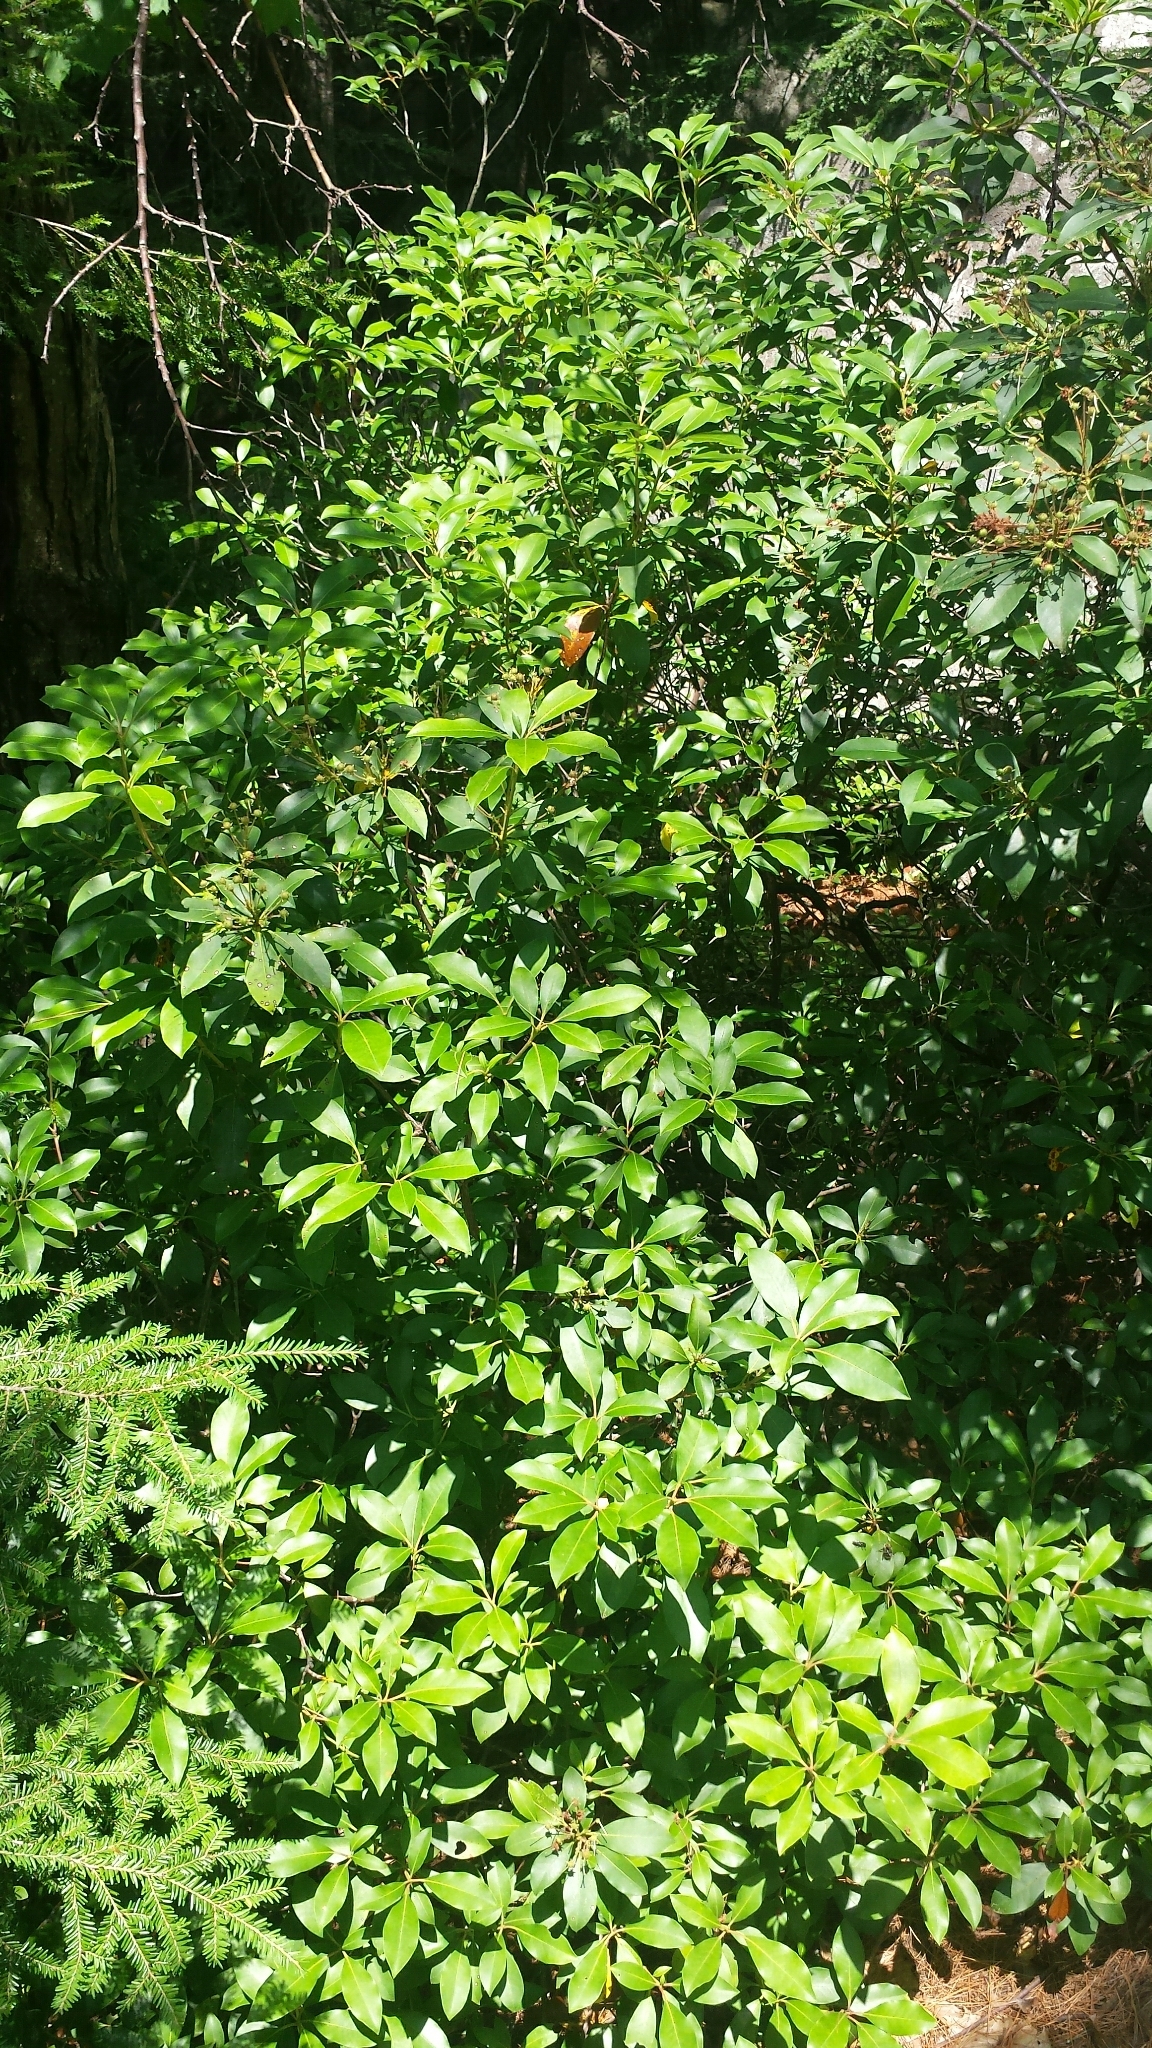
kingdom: Plantae
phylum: Tracheophyta
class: Magnoliopsida
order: Ericales
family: Ericaceae
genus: Kalmia
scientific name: Kalmia latifolia
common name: Mountain-laurel
